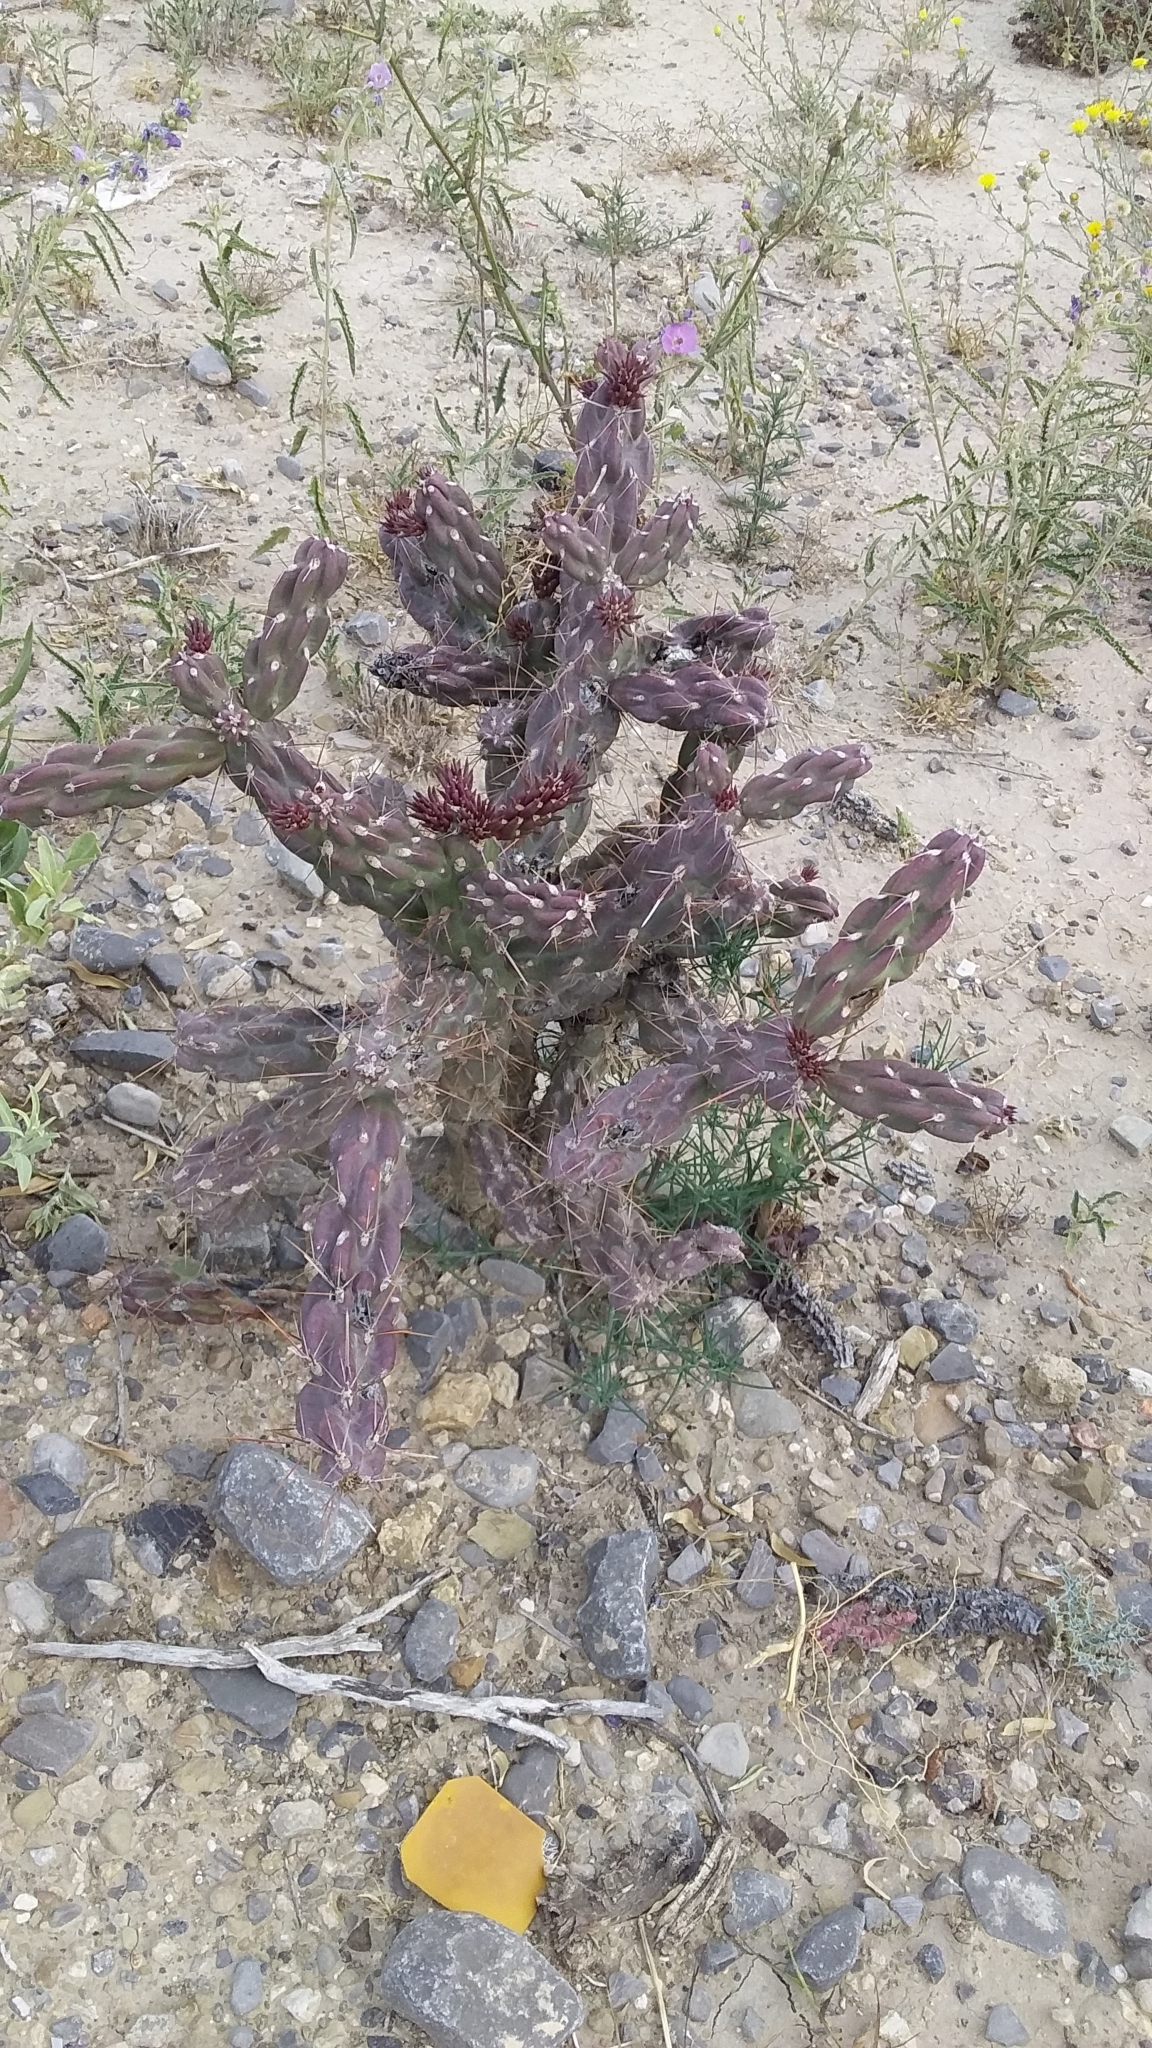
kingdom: Plantae
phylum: Tracheophyta
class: Magnoliopsida
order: Caryophyllales
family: Cactaceae
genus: Cylindropuntia
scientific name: Cylindropuntia imbricata
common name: Candelabrum cactus
